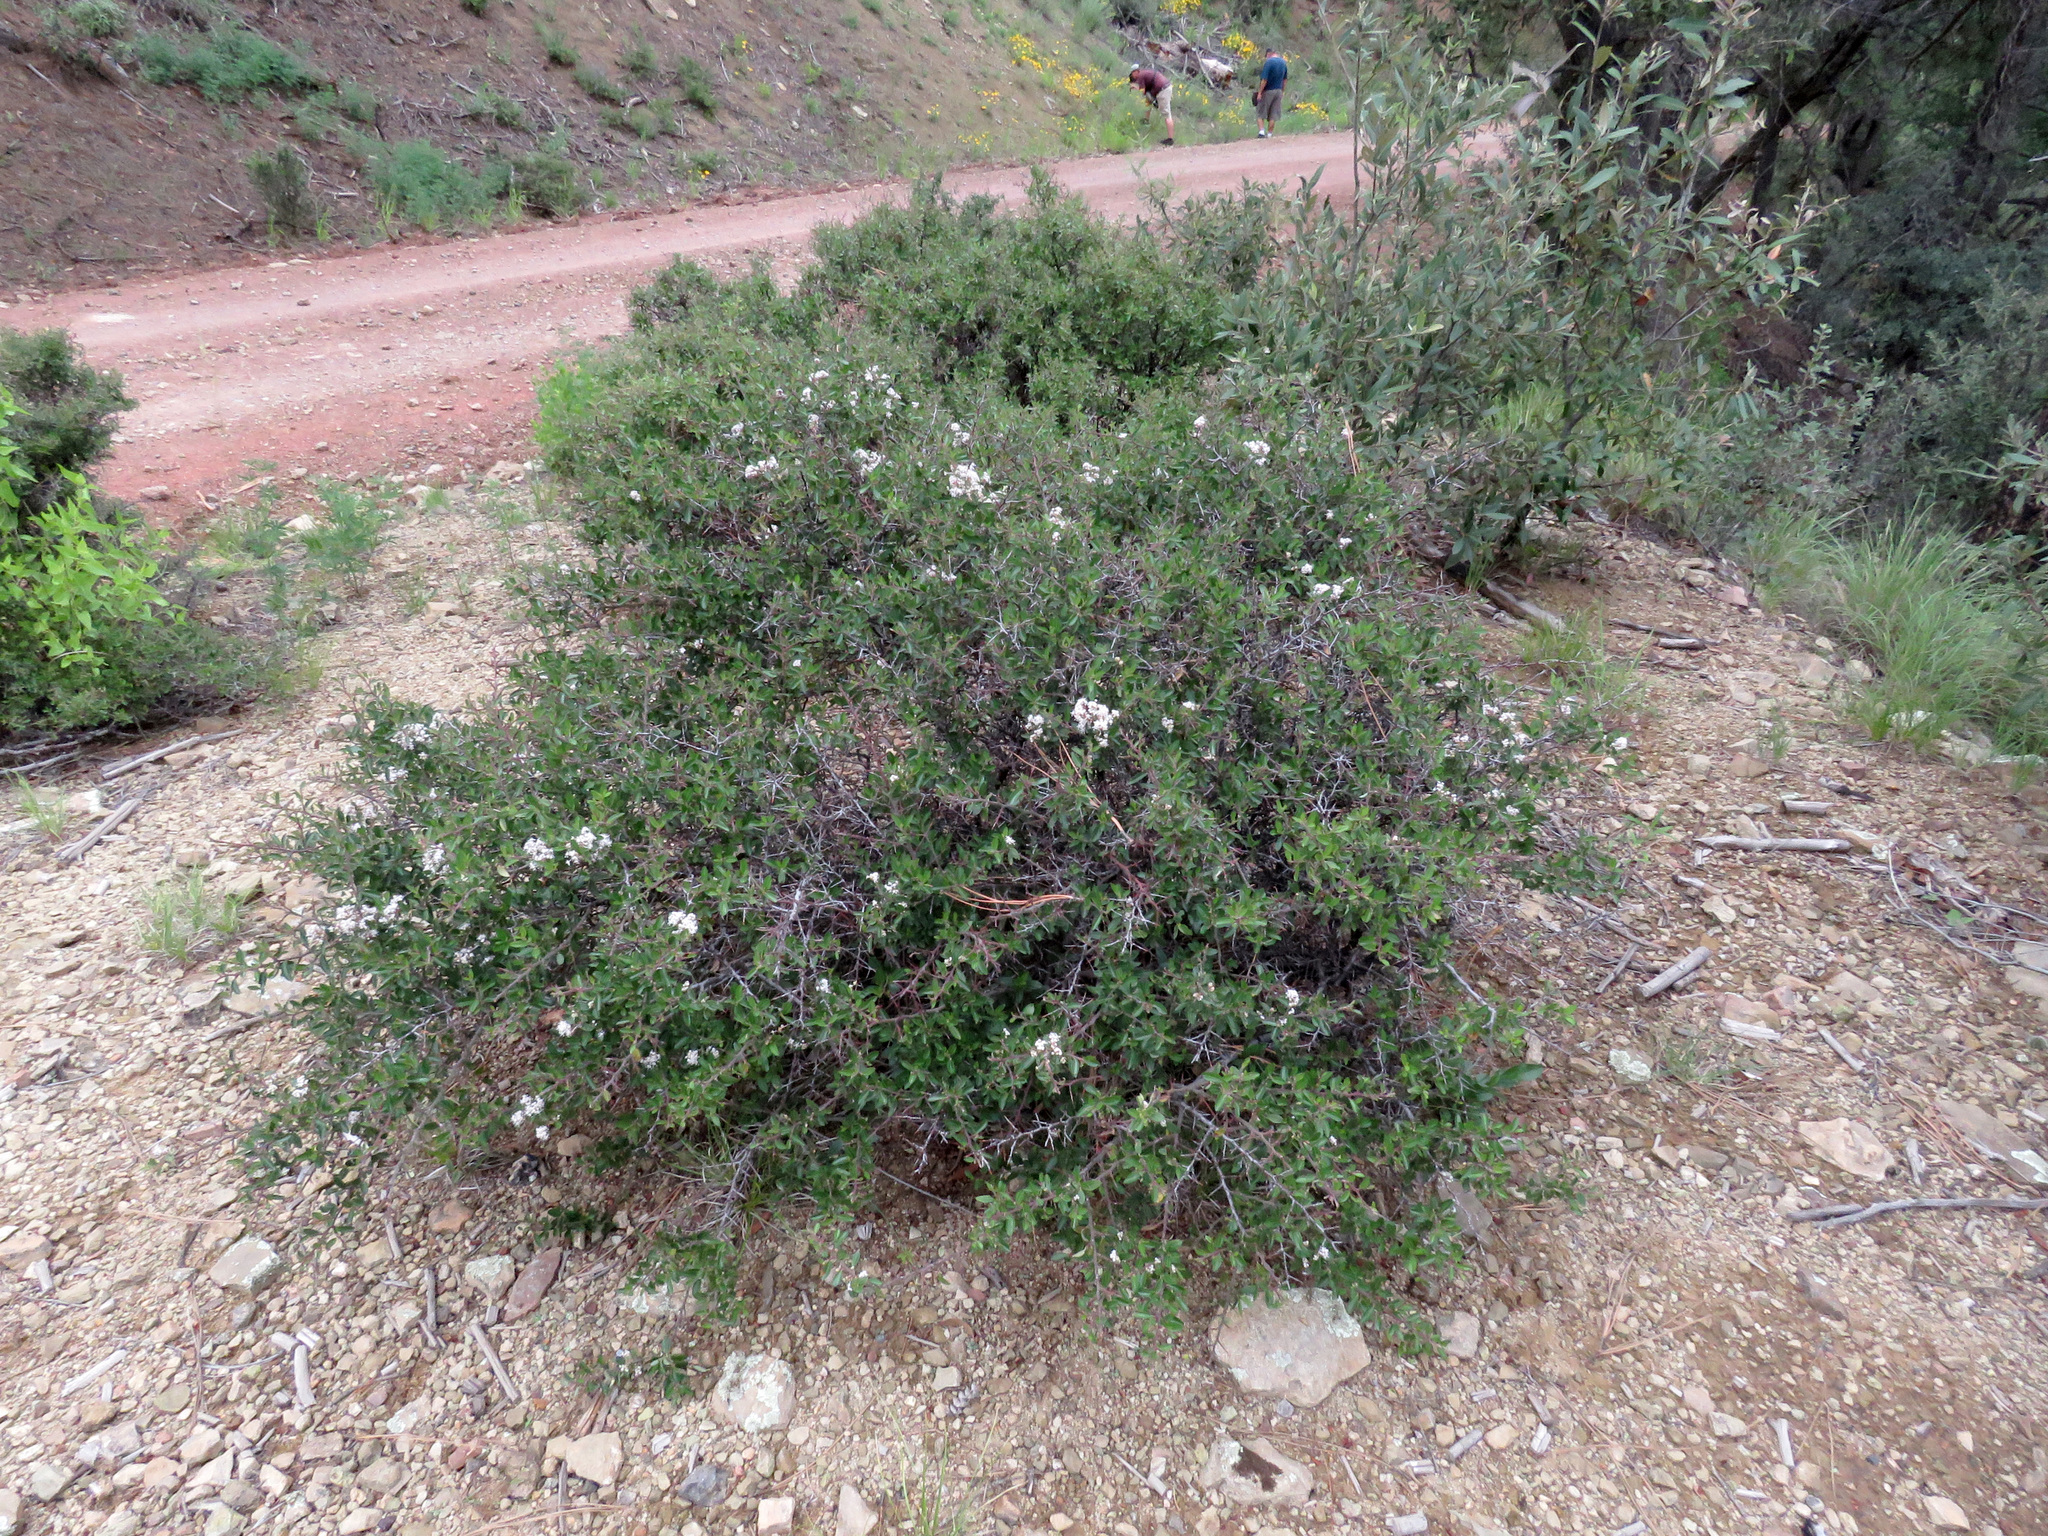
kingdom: Plantae
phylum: Tracheophyta
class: Magnoliopsida
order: Rosales
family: Rhamnaceae
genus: Ceanothus
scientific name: Ceanothus fendleri
